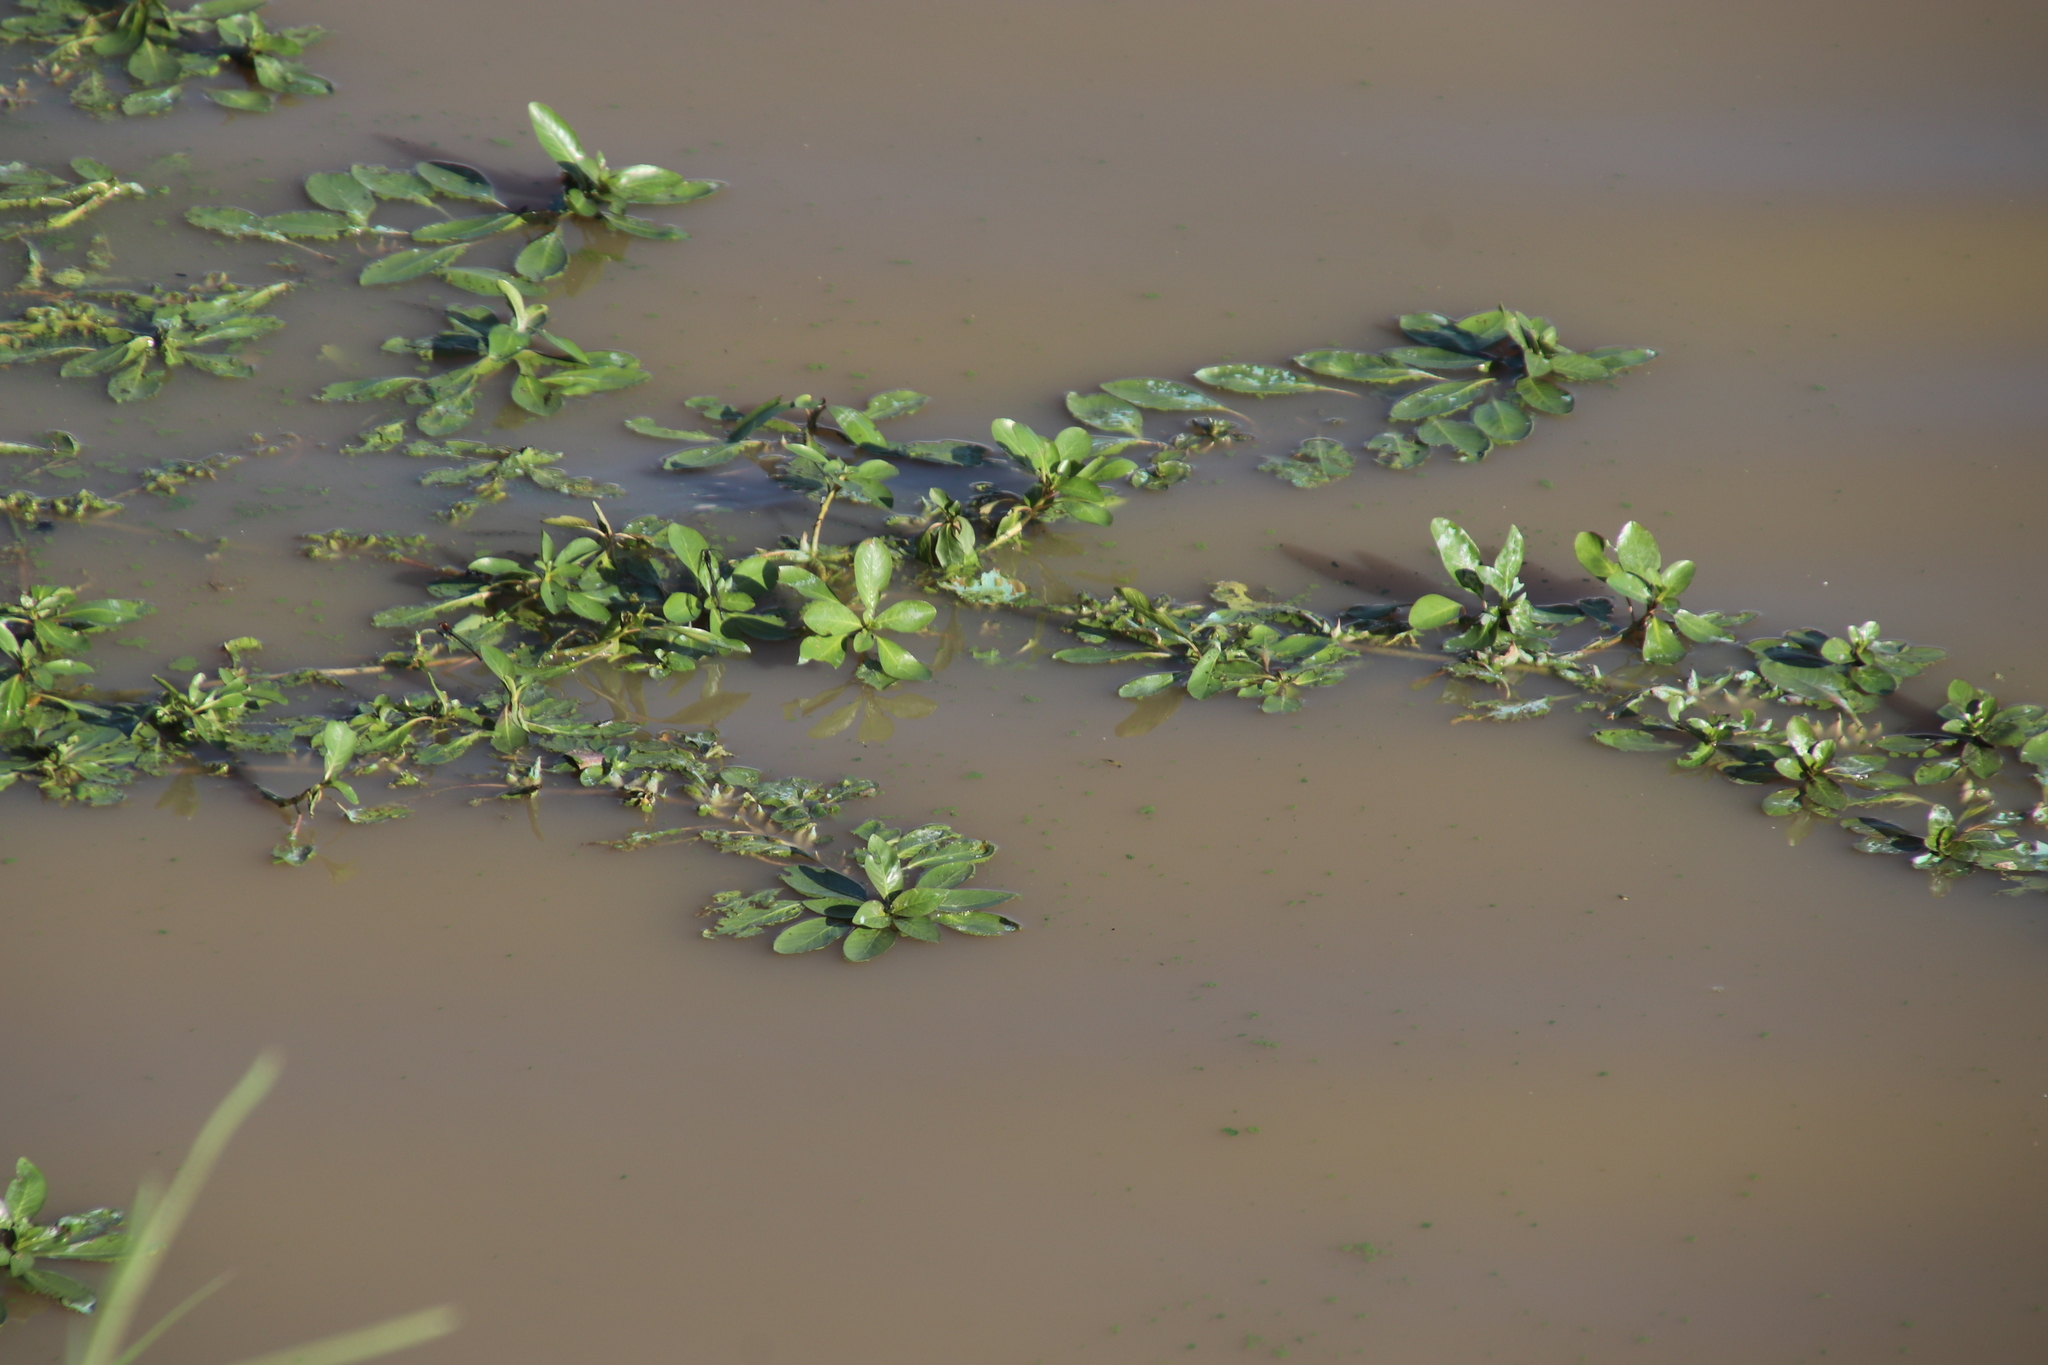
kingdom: Plantae
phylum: Tracheophyta
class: Magnoliopsida
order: Myrtales
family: Onagraceae
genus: Ludwigia
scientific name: Ludwigia adscendens
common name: Creeping water primrose
